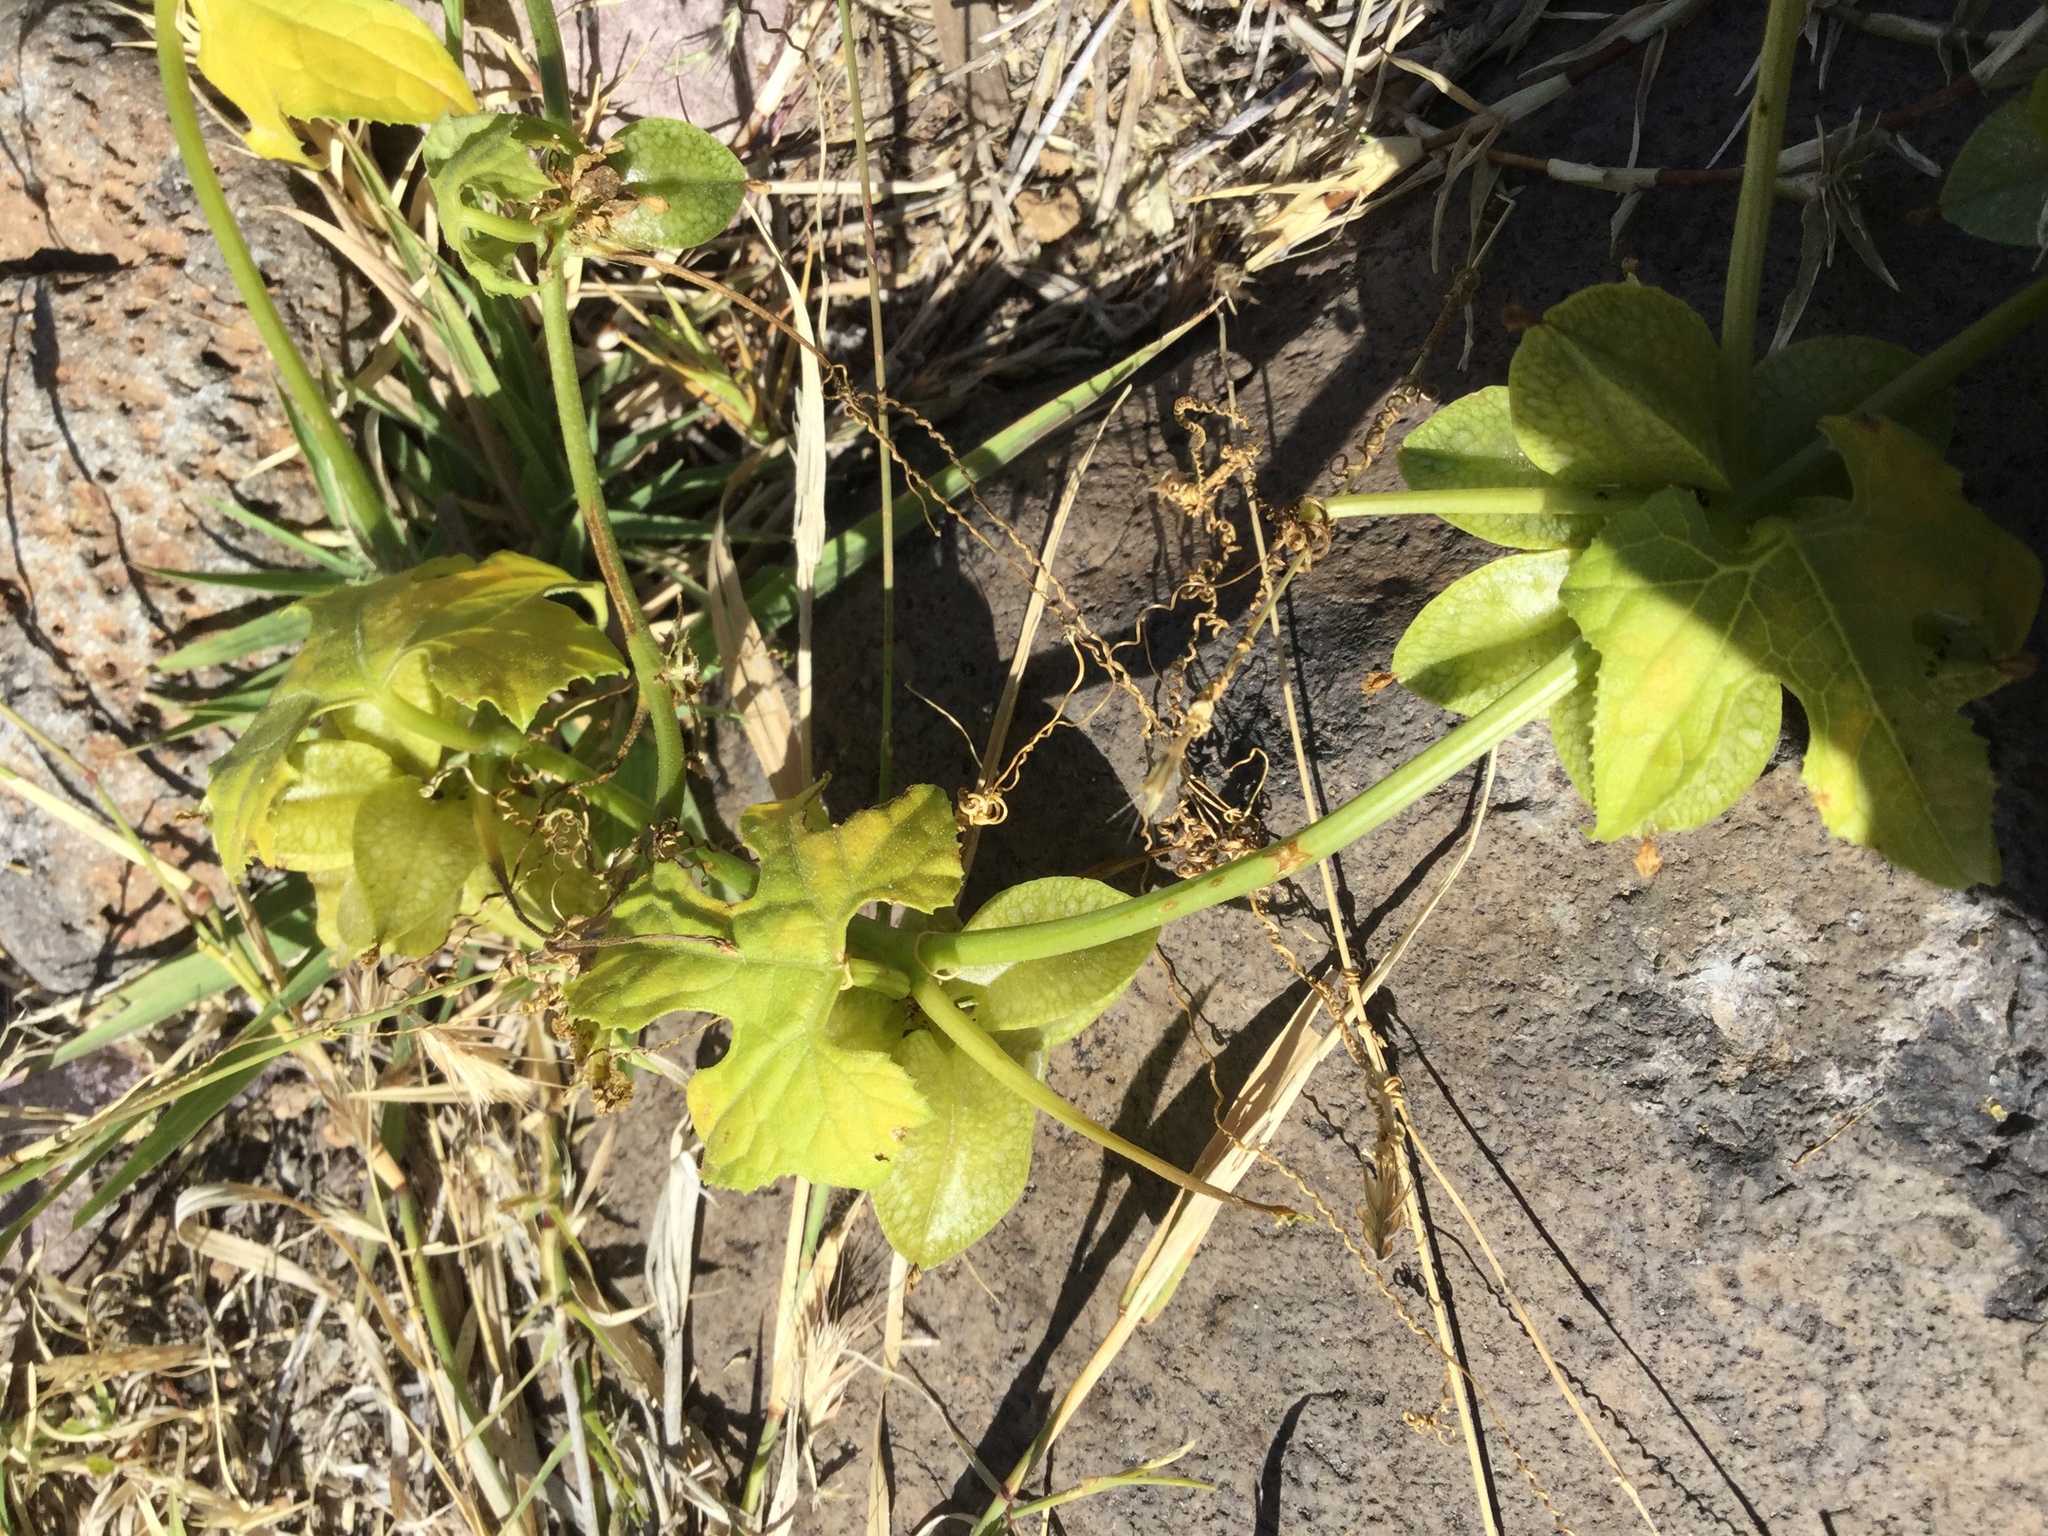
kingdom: Plantae
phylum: Tracheophyta
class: Magnoliopsida
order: Cucurbitales
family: Cucurbitaceae
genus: Sechiopsis
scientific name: Sechiopsis triquetra
